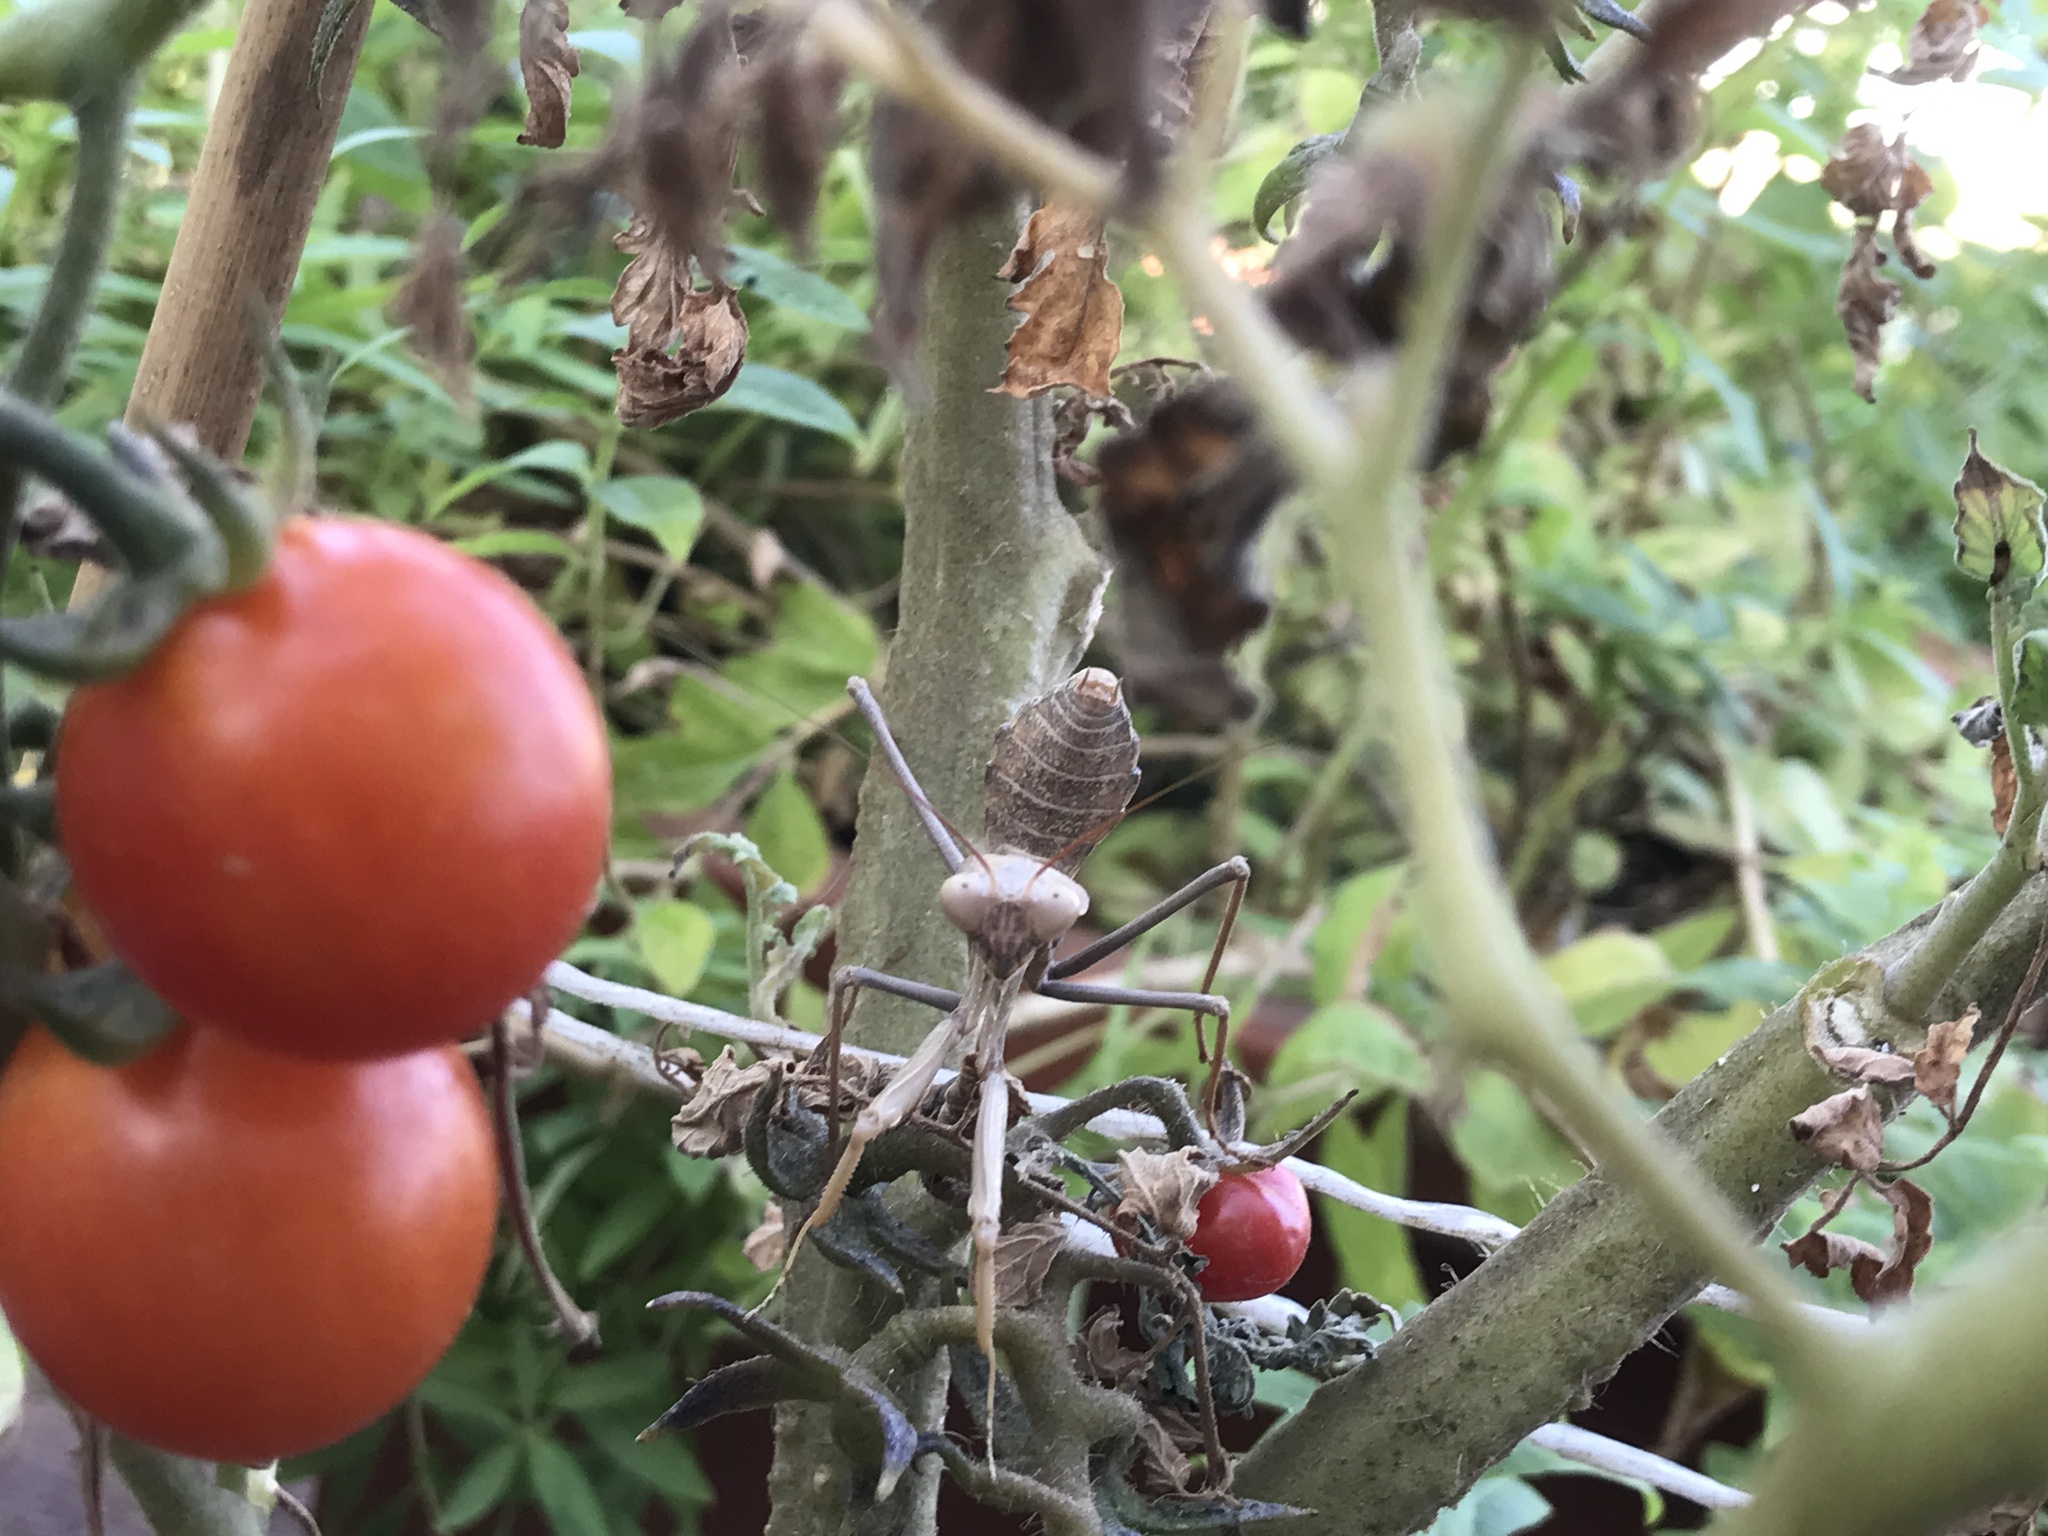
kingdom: Animalia
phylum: Arthropoda
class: Insecta
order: Mantodea
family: Mantidae
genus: Sphodromantis
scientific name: Sphodromantis viridis
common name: Giant african mantis
